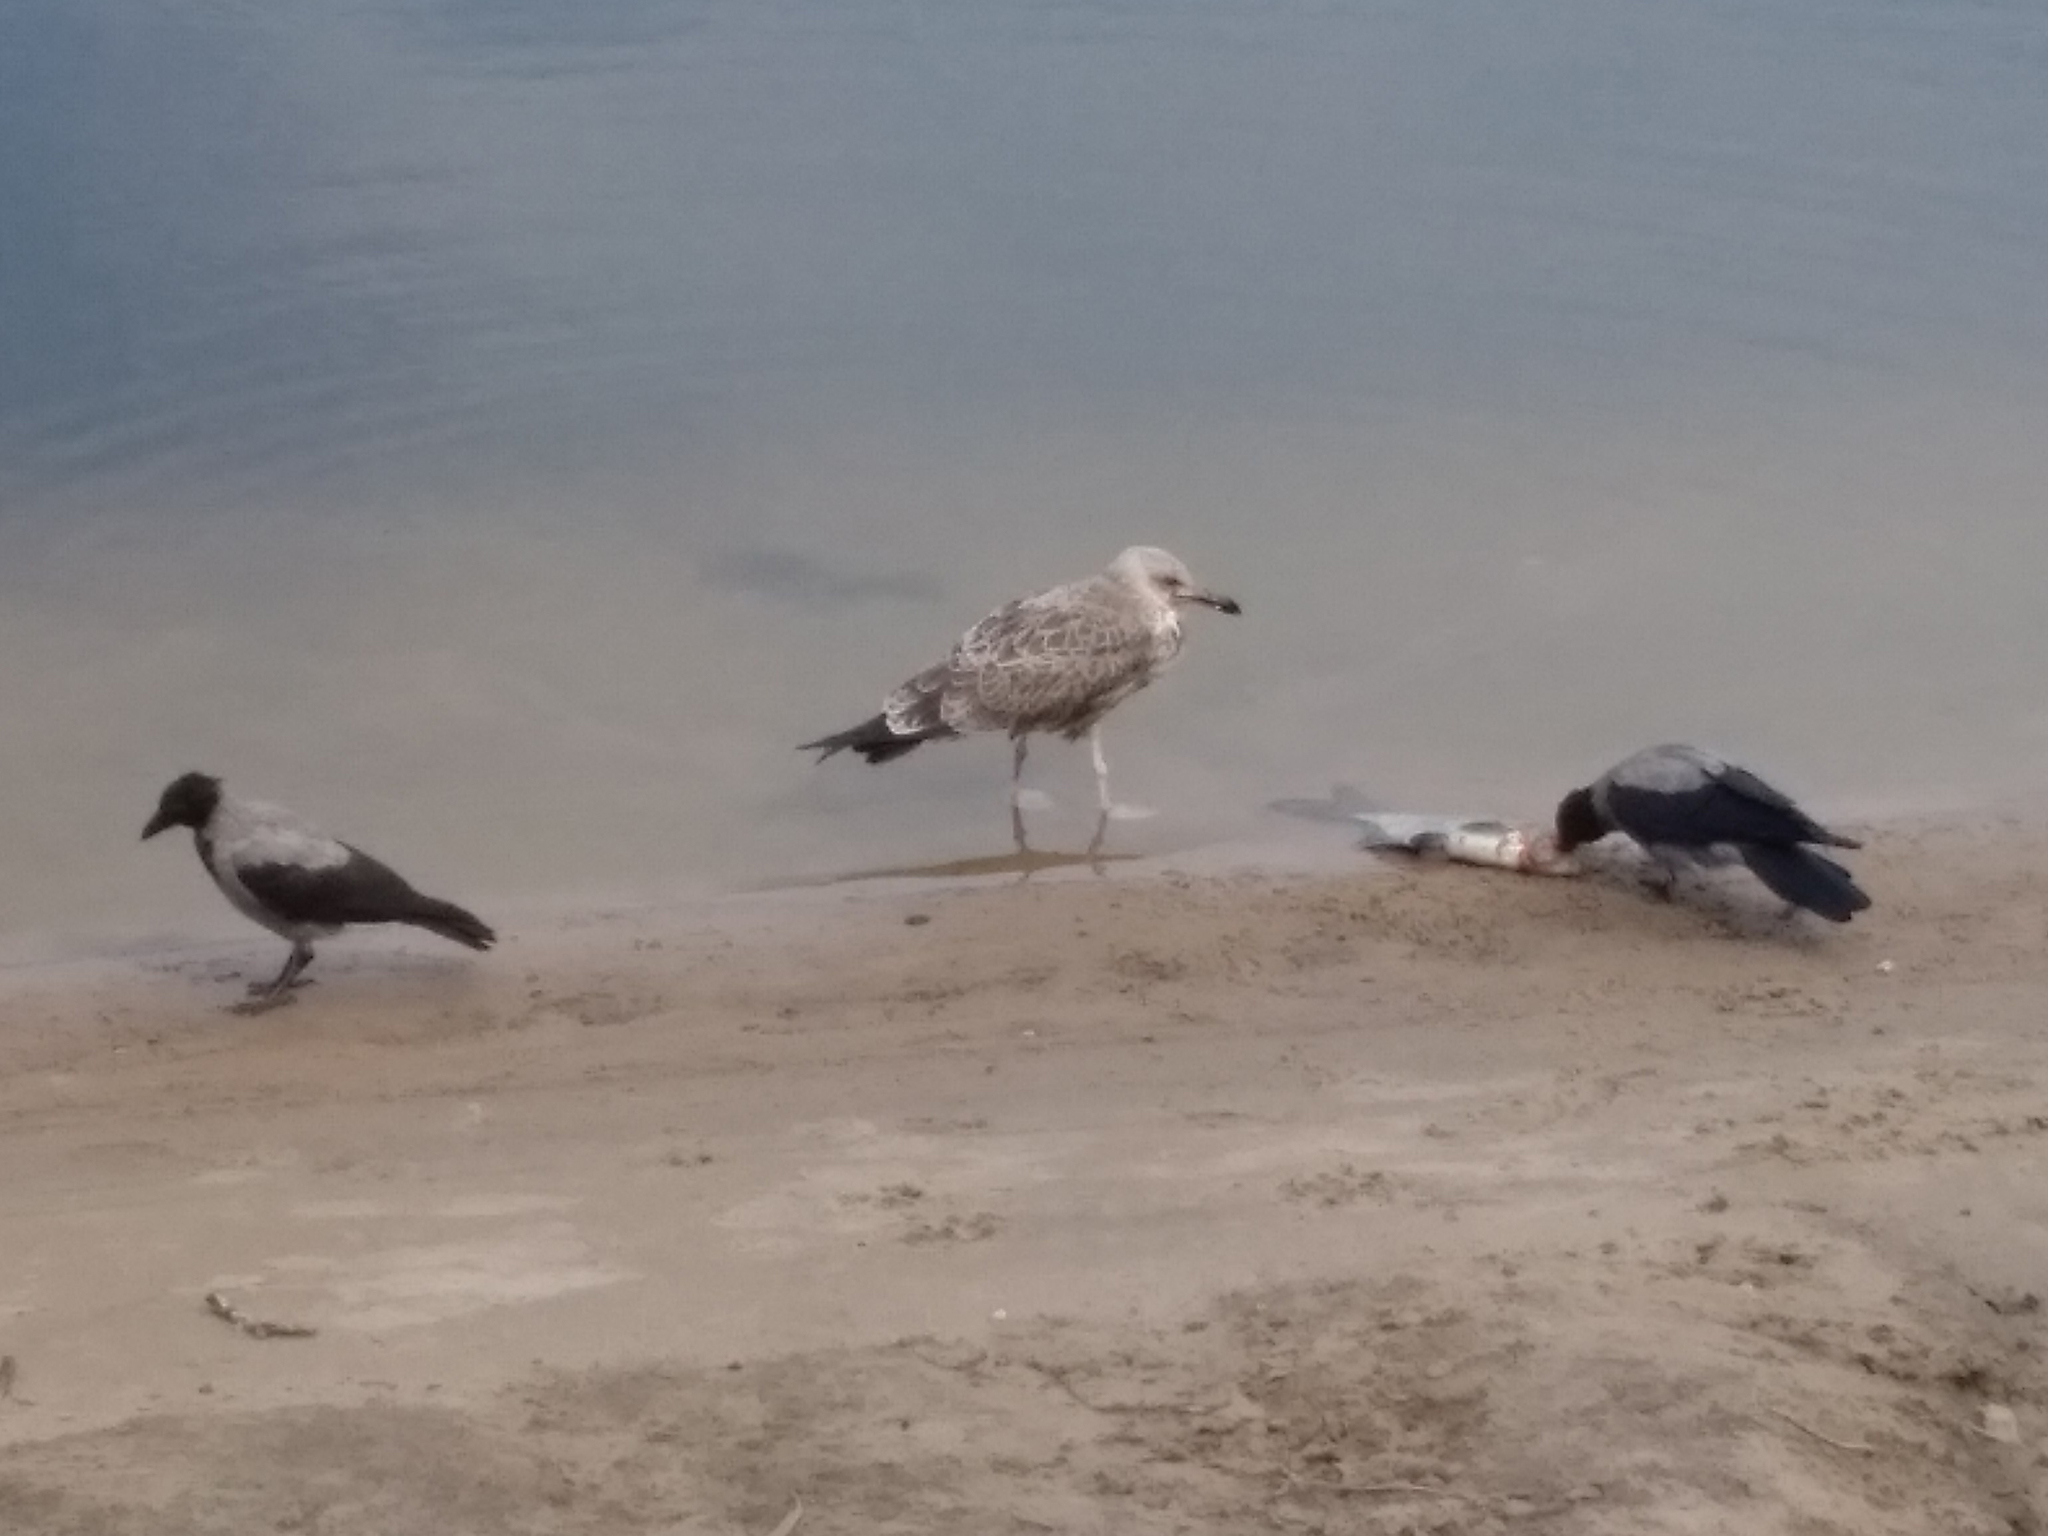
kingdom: Animalia
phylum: Chordata
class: Aves
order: Charadriiformes
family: Laridae
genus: Larus
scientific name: Larus cachinnans
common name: Caspian gull
